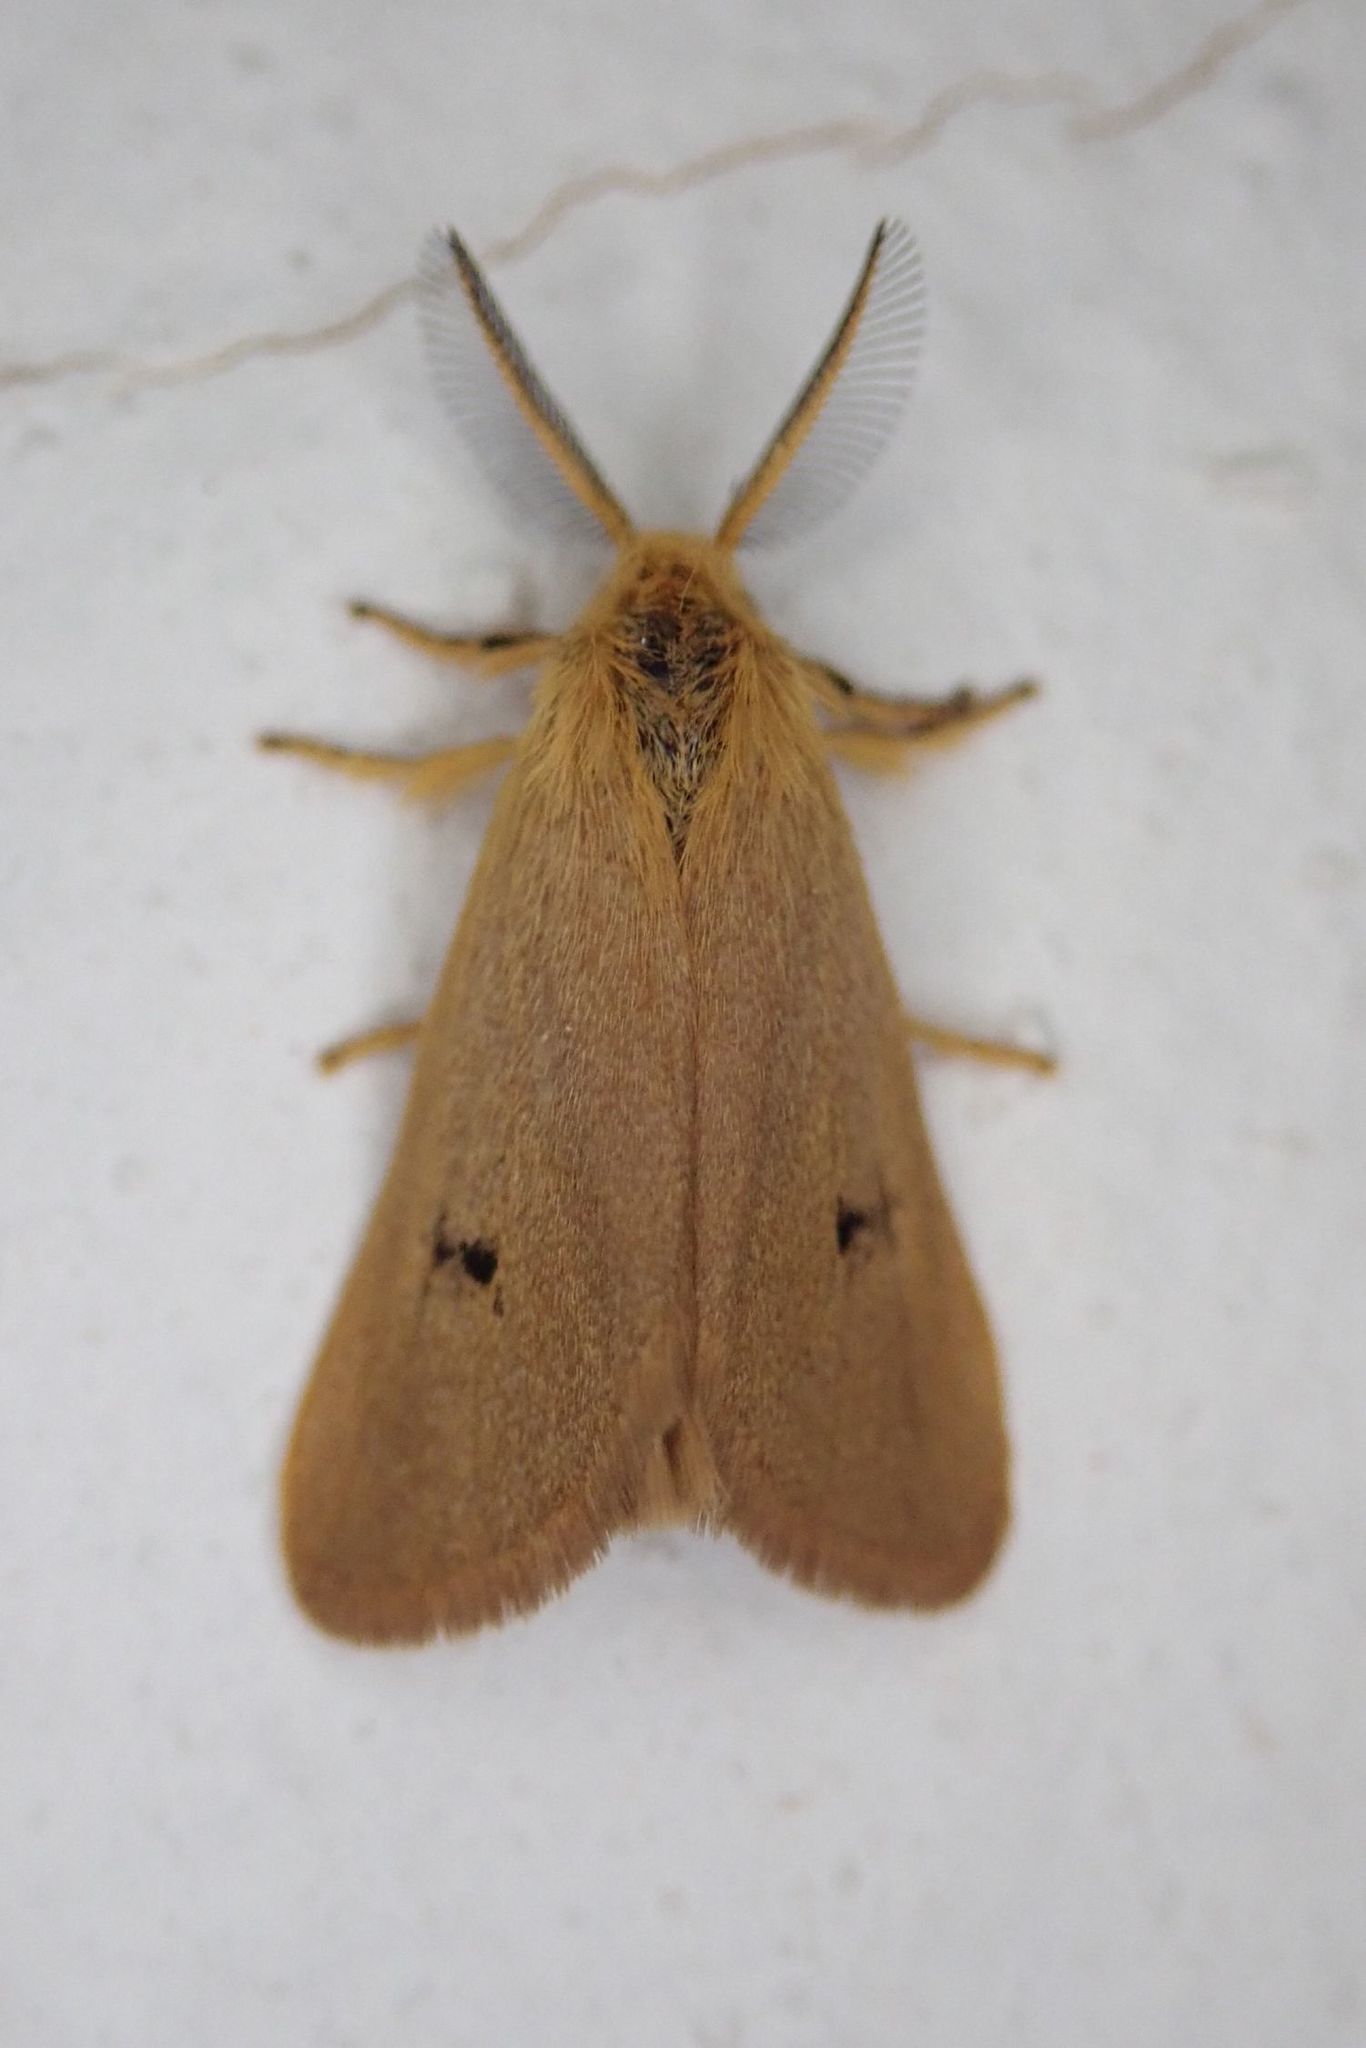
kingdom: Animalia
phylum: Arthropoda
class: Insecta
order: Lepidoptera
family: Erebidae
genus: Bracharoa
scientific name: Bracharoa dregei
